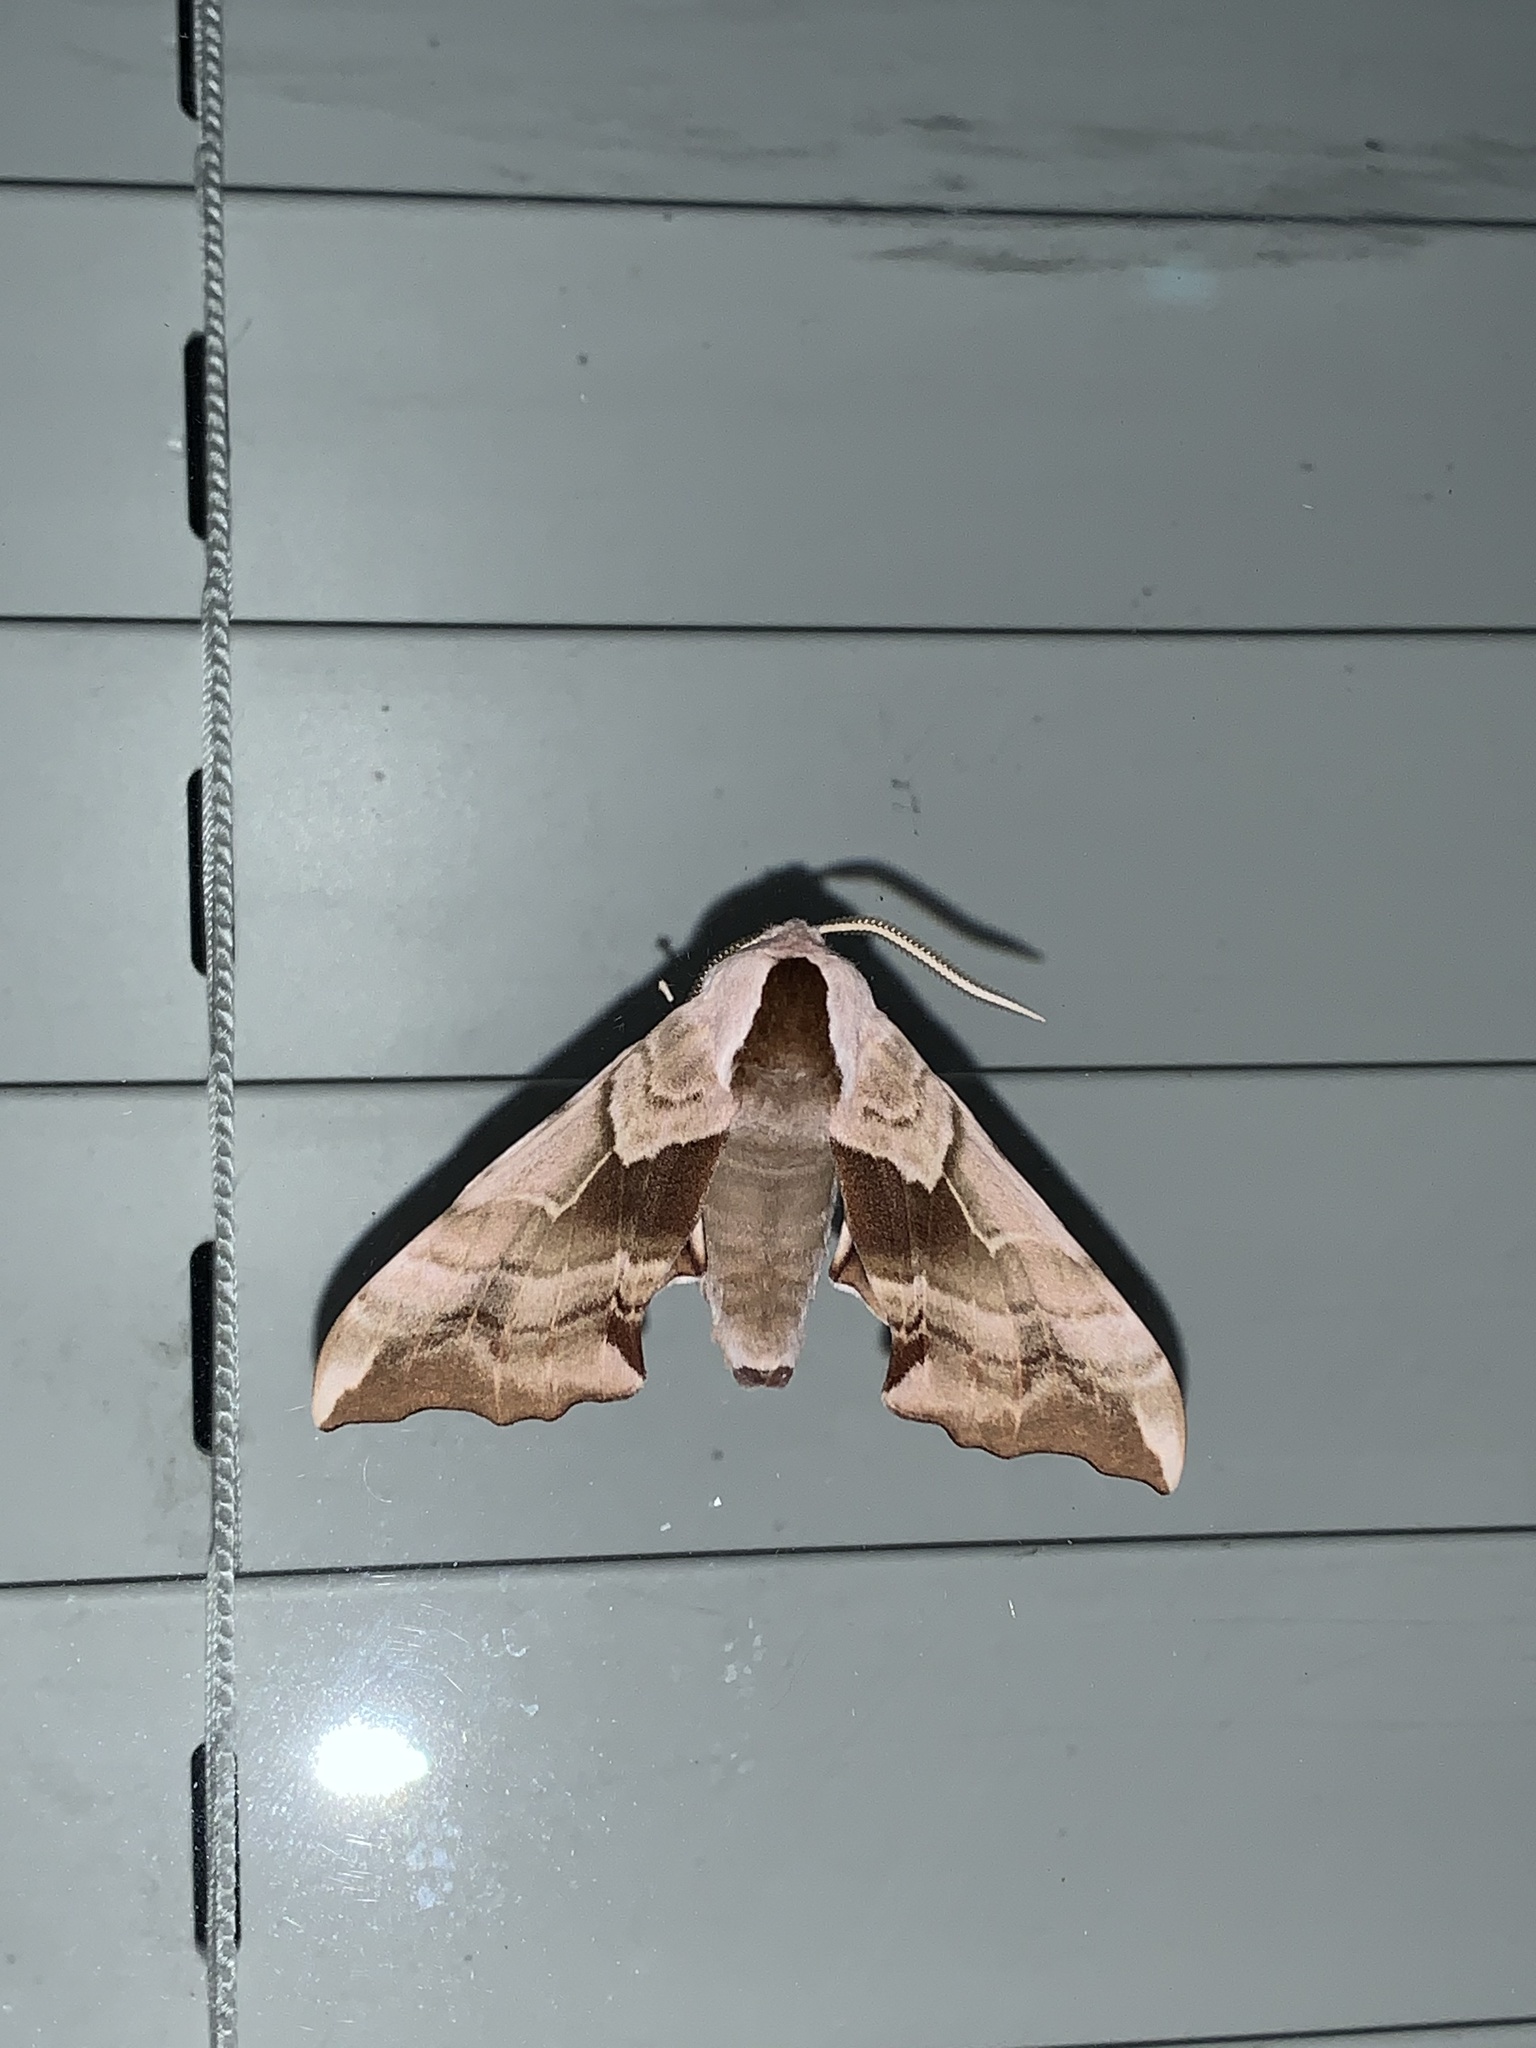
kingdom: Animalia
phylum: Arthropoda
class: Insecta
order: Lepidoptera
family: Sphingidae
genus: Smerinthus
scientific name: Smerinthus cerisyi
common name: Cerisy's sphinx moth
